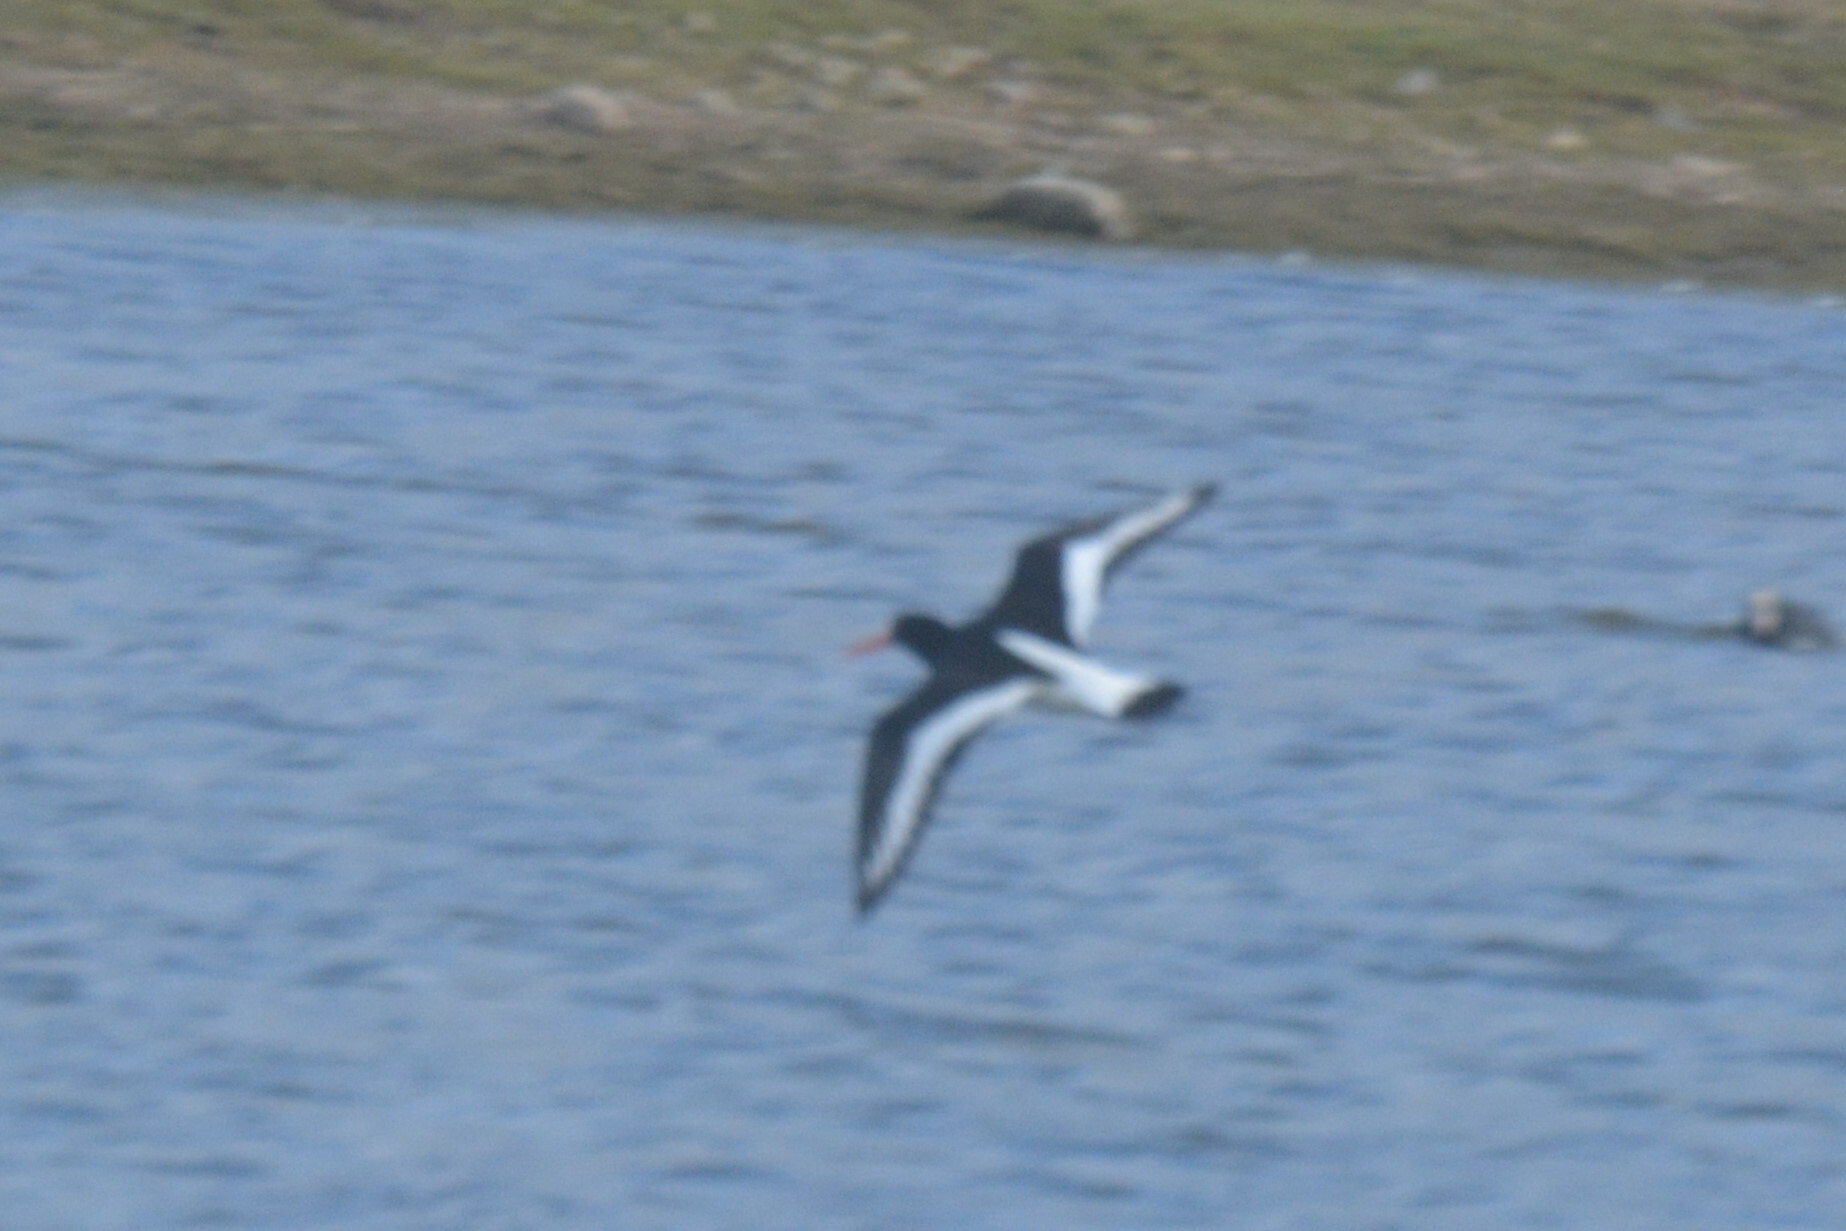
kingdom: Animalia
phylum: Chordata
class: Aves
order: Charadriiformes
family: Haematopodidae
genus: Haematopus
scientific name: Haematopus ostralegus
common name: Eurasian oystercatcher
